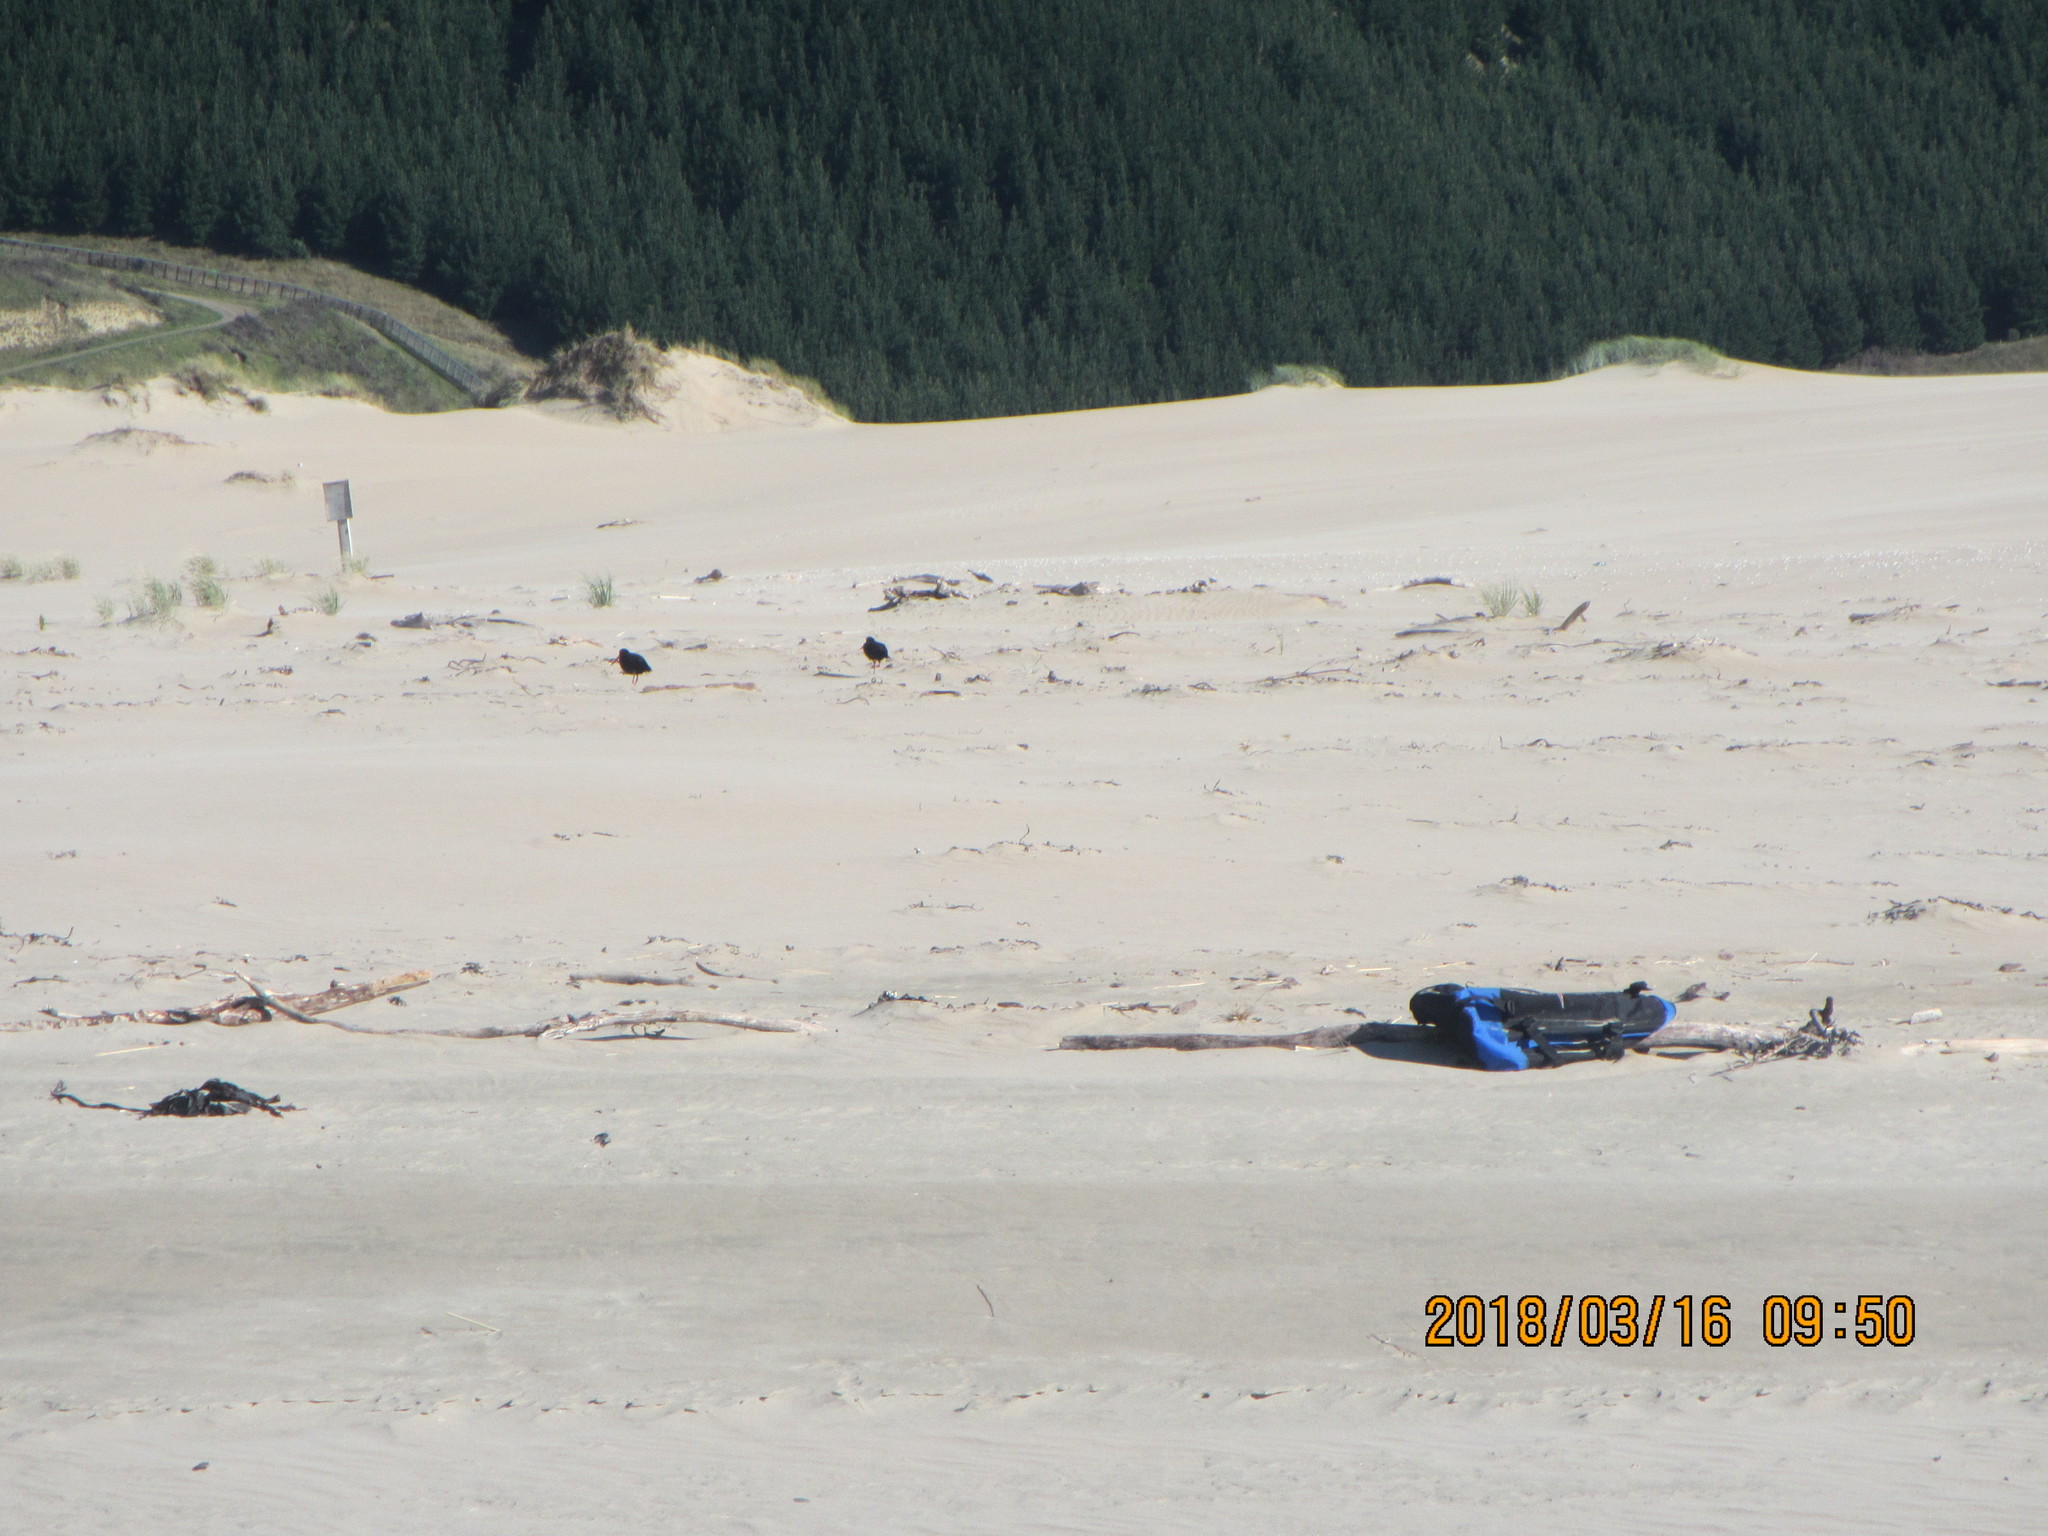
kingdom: Animalia
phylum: Chordata
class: Aves
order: Charadriiformes
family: Haematopodidae
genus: Haematopus
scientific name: Haematopus unicolor
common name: Variable oystercatcher
